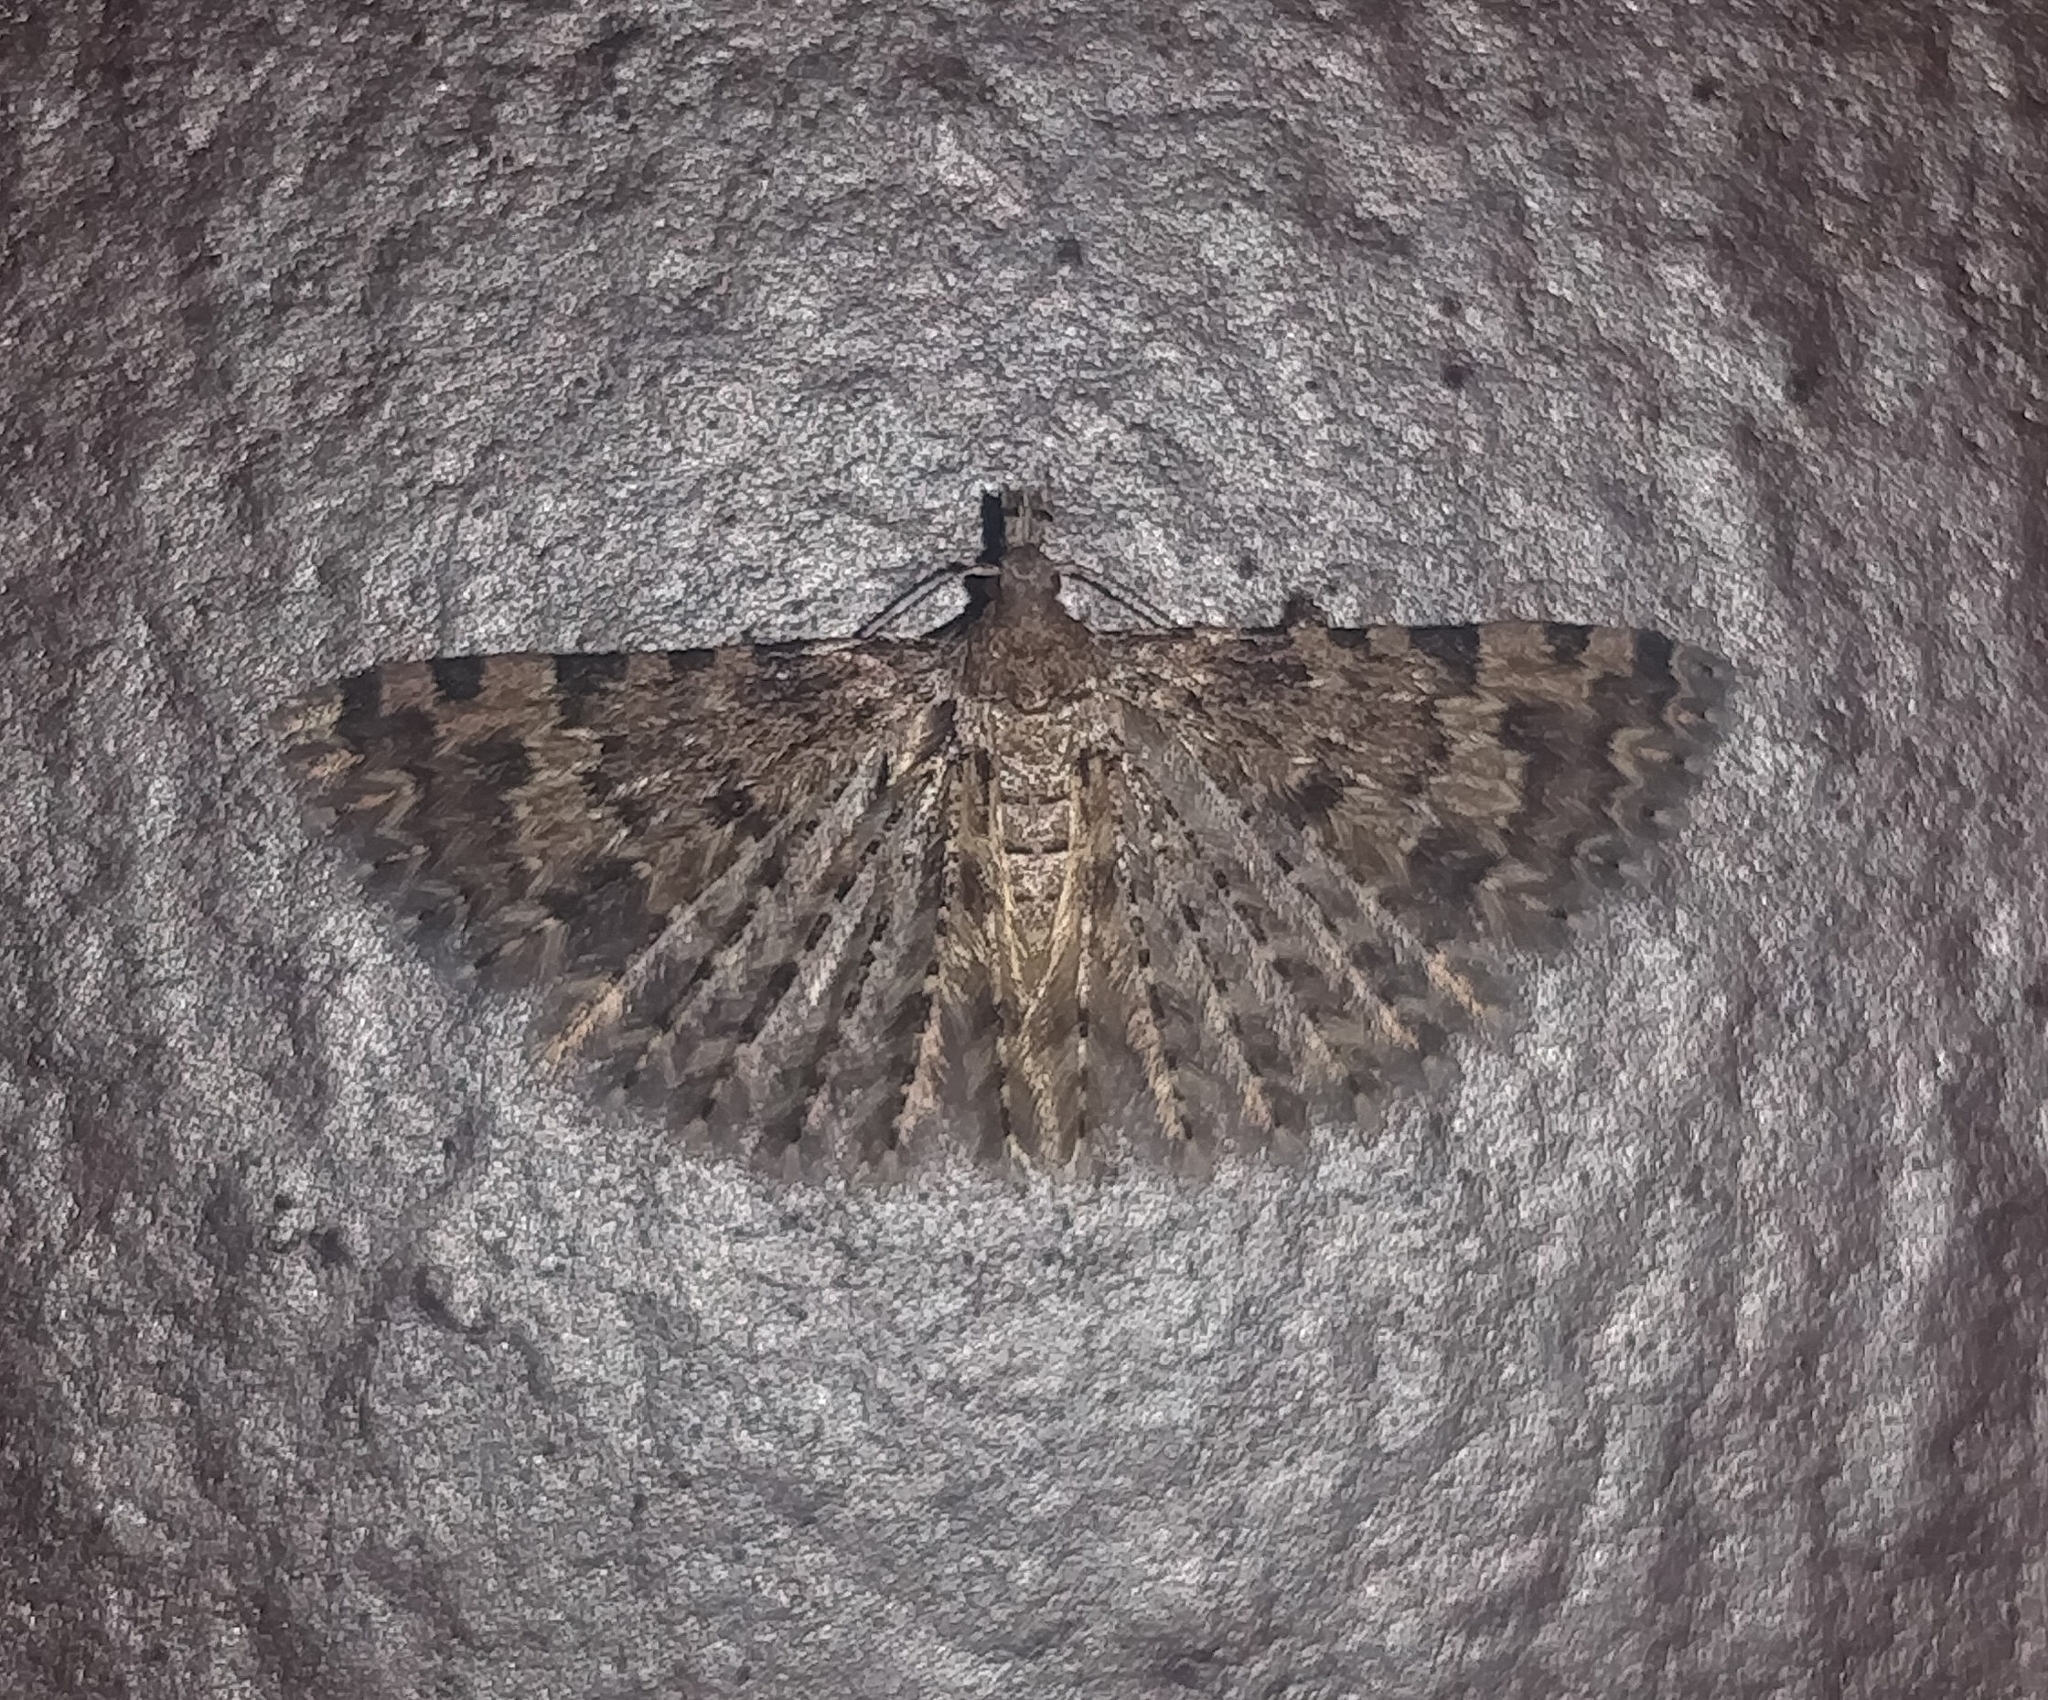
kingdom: Animalia
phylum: Arthropoda
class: Insecta
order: Lepidoptera
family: Alucitidae
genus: Alucita
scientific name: Alucita canariensis
